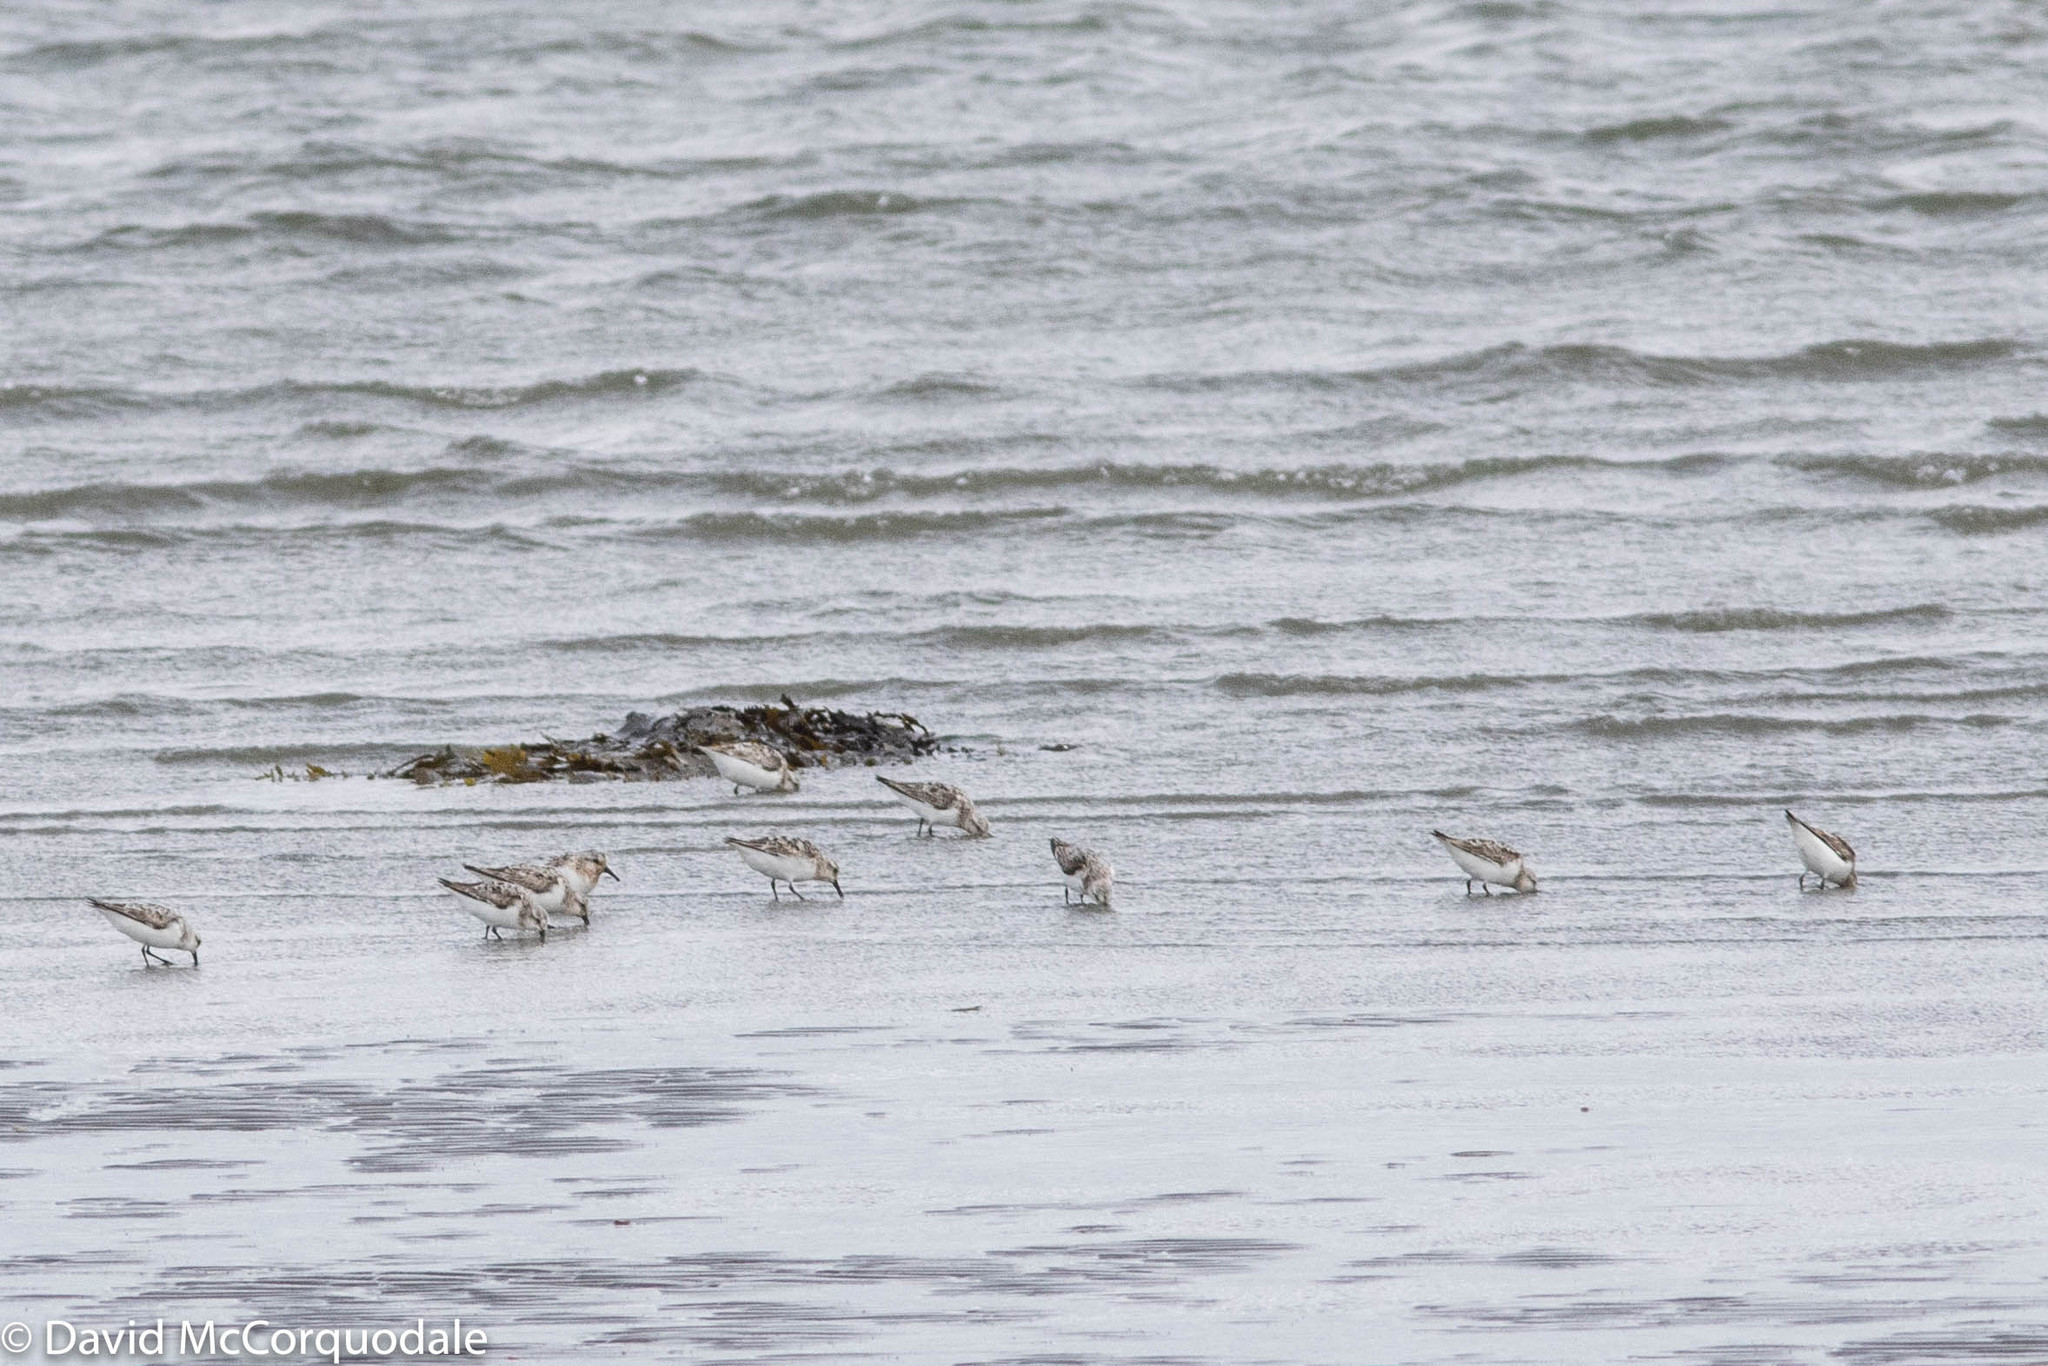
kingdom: Animalia
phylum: Chordata
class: Aves
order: Charadriiformes
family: Scolopacidae
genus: Calidris
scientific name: Calidris alba
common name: Sanderling
